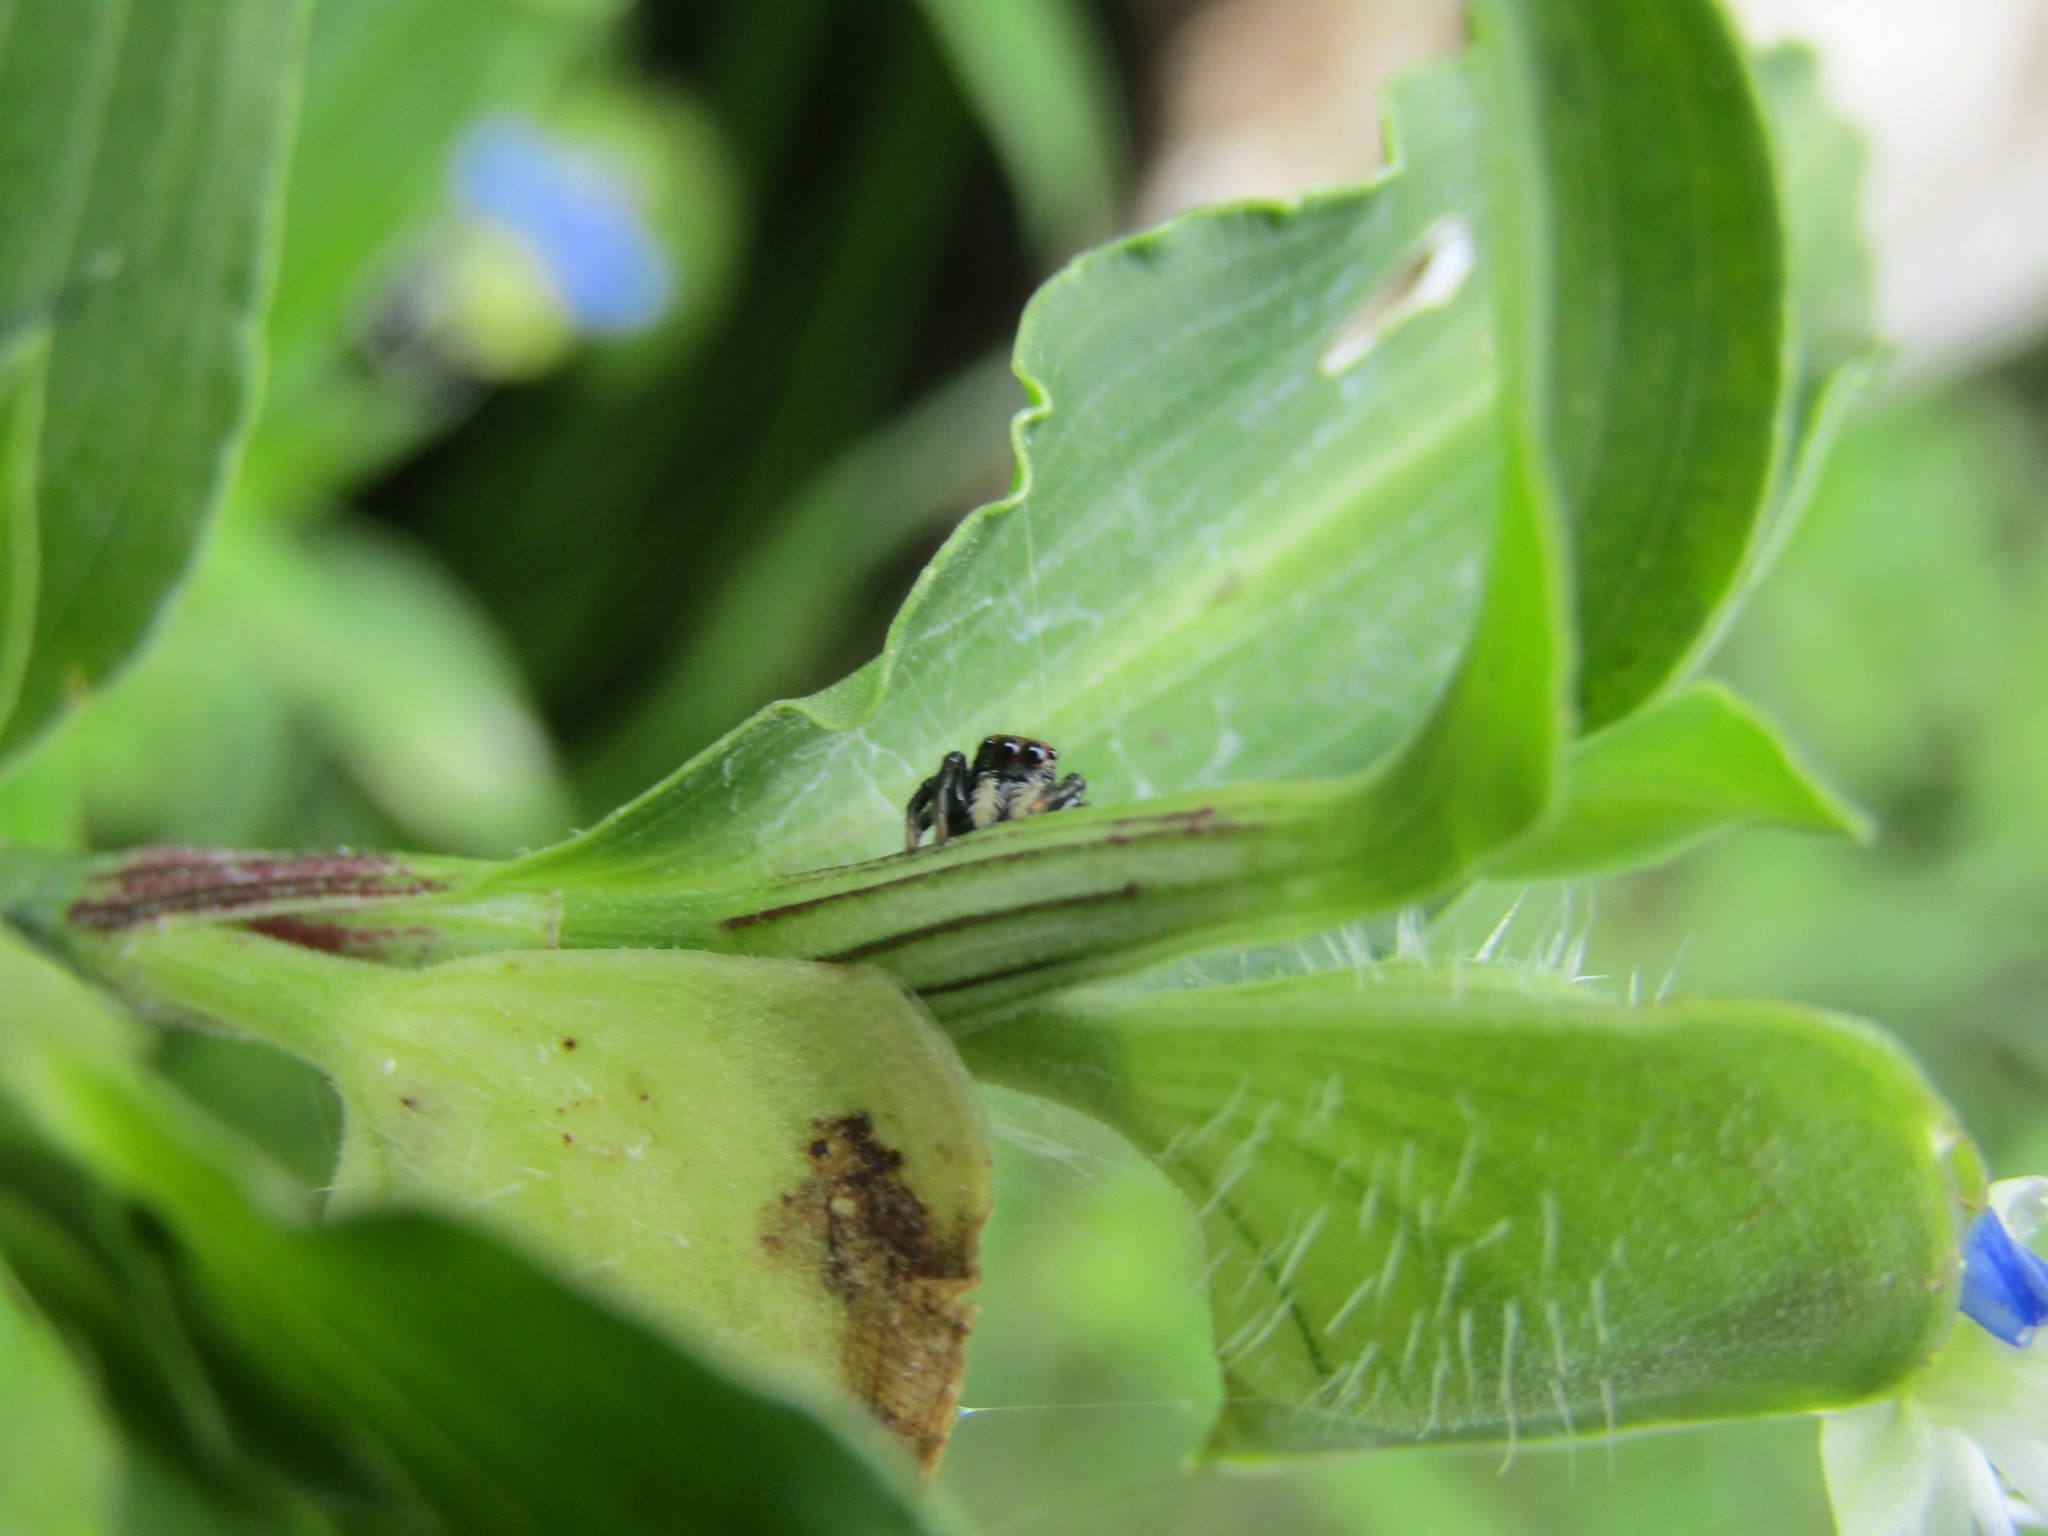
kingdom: Animalia
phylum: Arthropoda
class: Arachnida
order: Araneae
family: Salticidae
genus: Phiale
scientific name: Phiale roburifoliata
